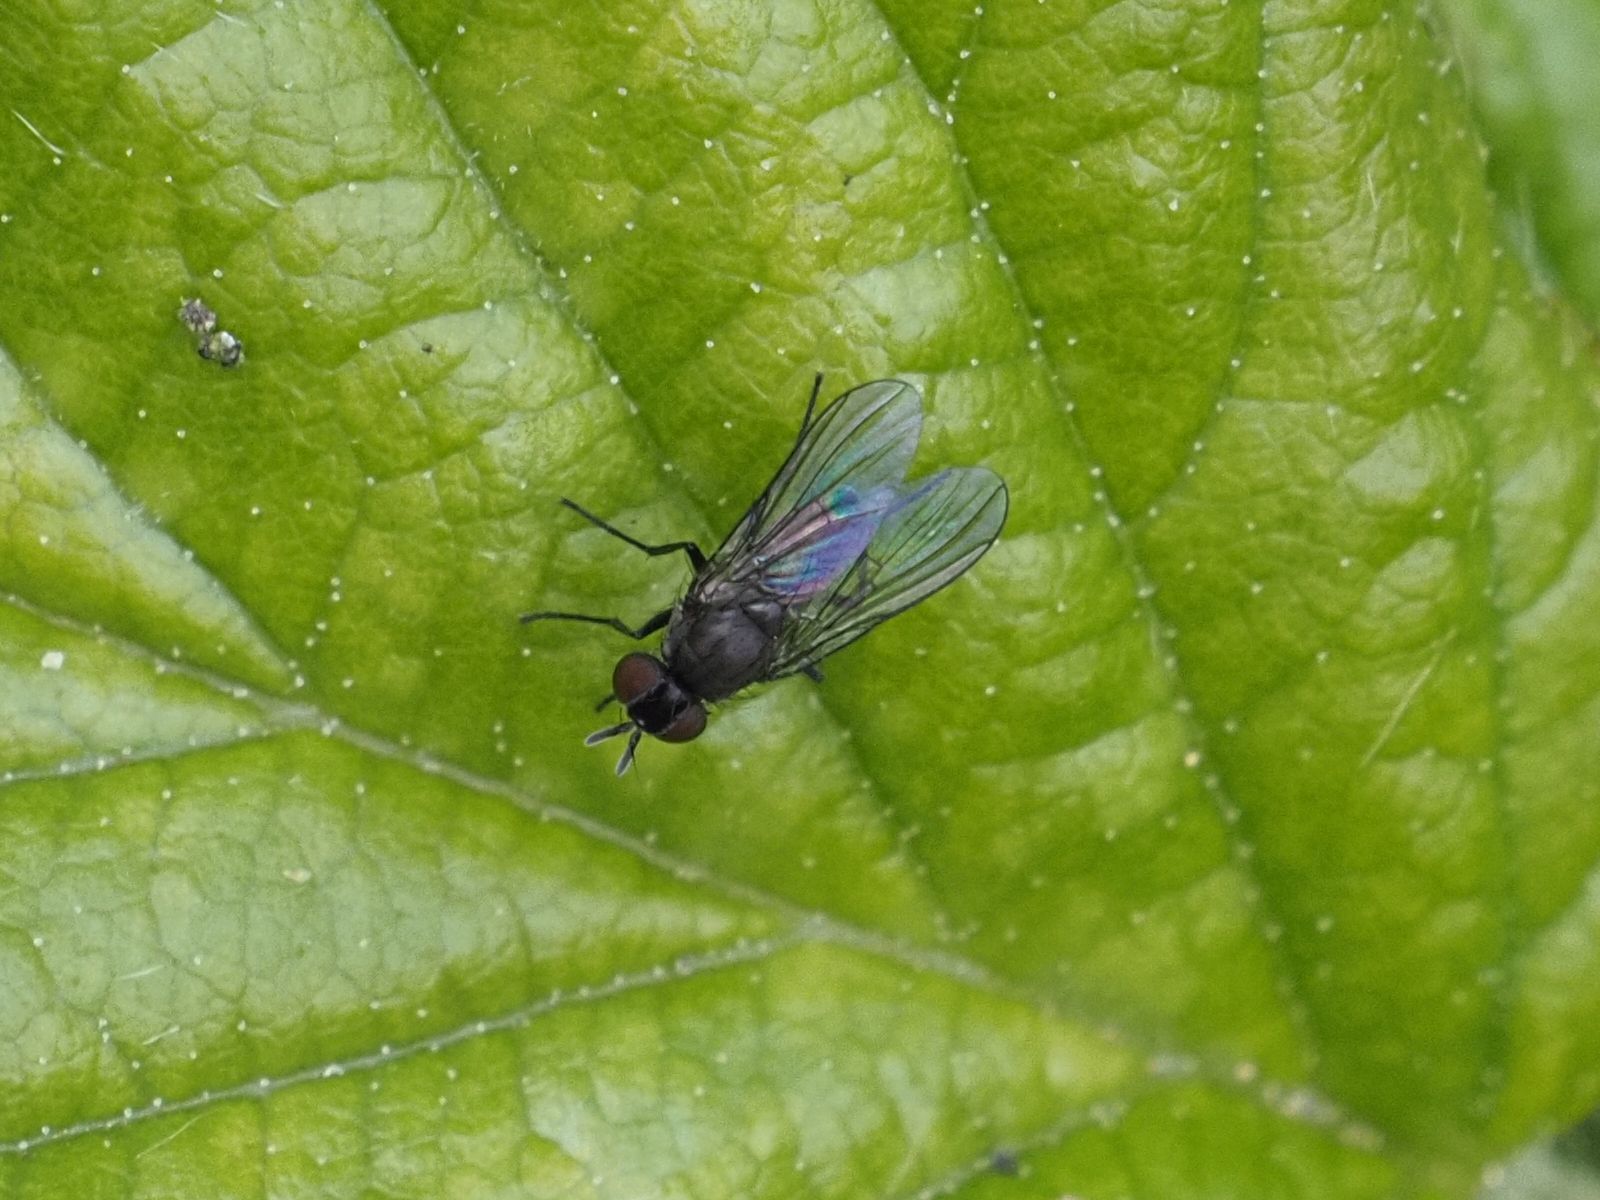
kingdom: Animalia
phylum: Arthropoda
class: Insecta
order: Diptera
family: Muscidae
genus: Coenosia
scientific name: Coenosia agromyzina
